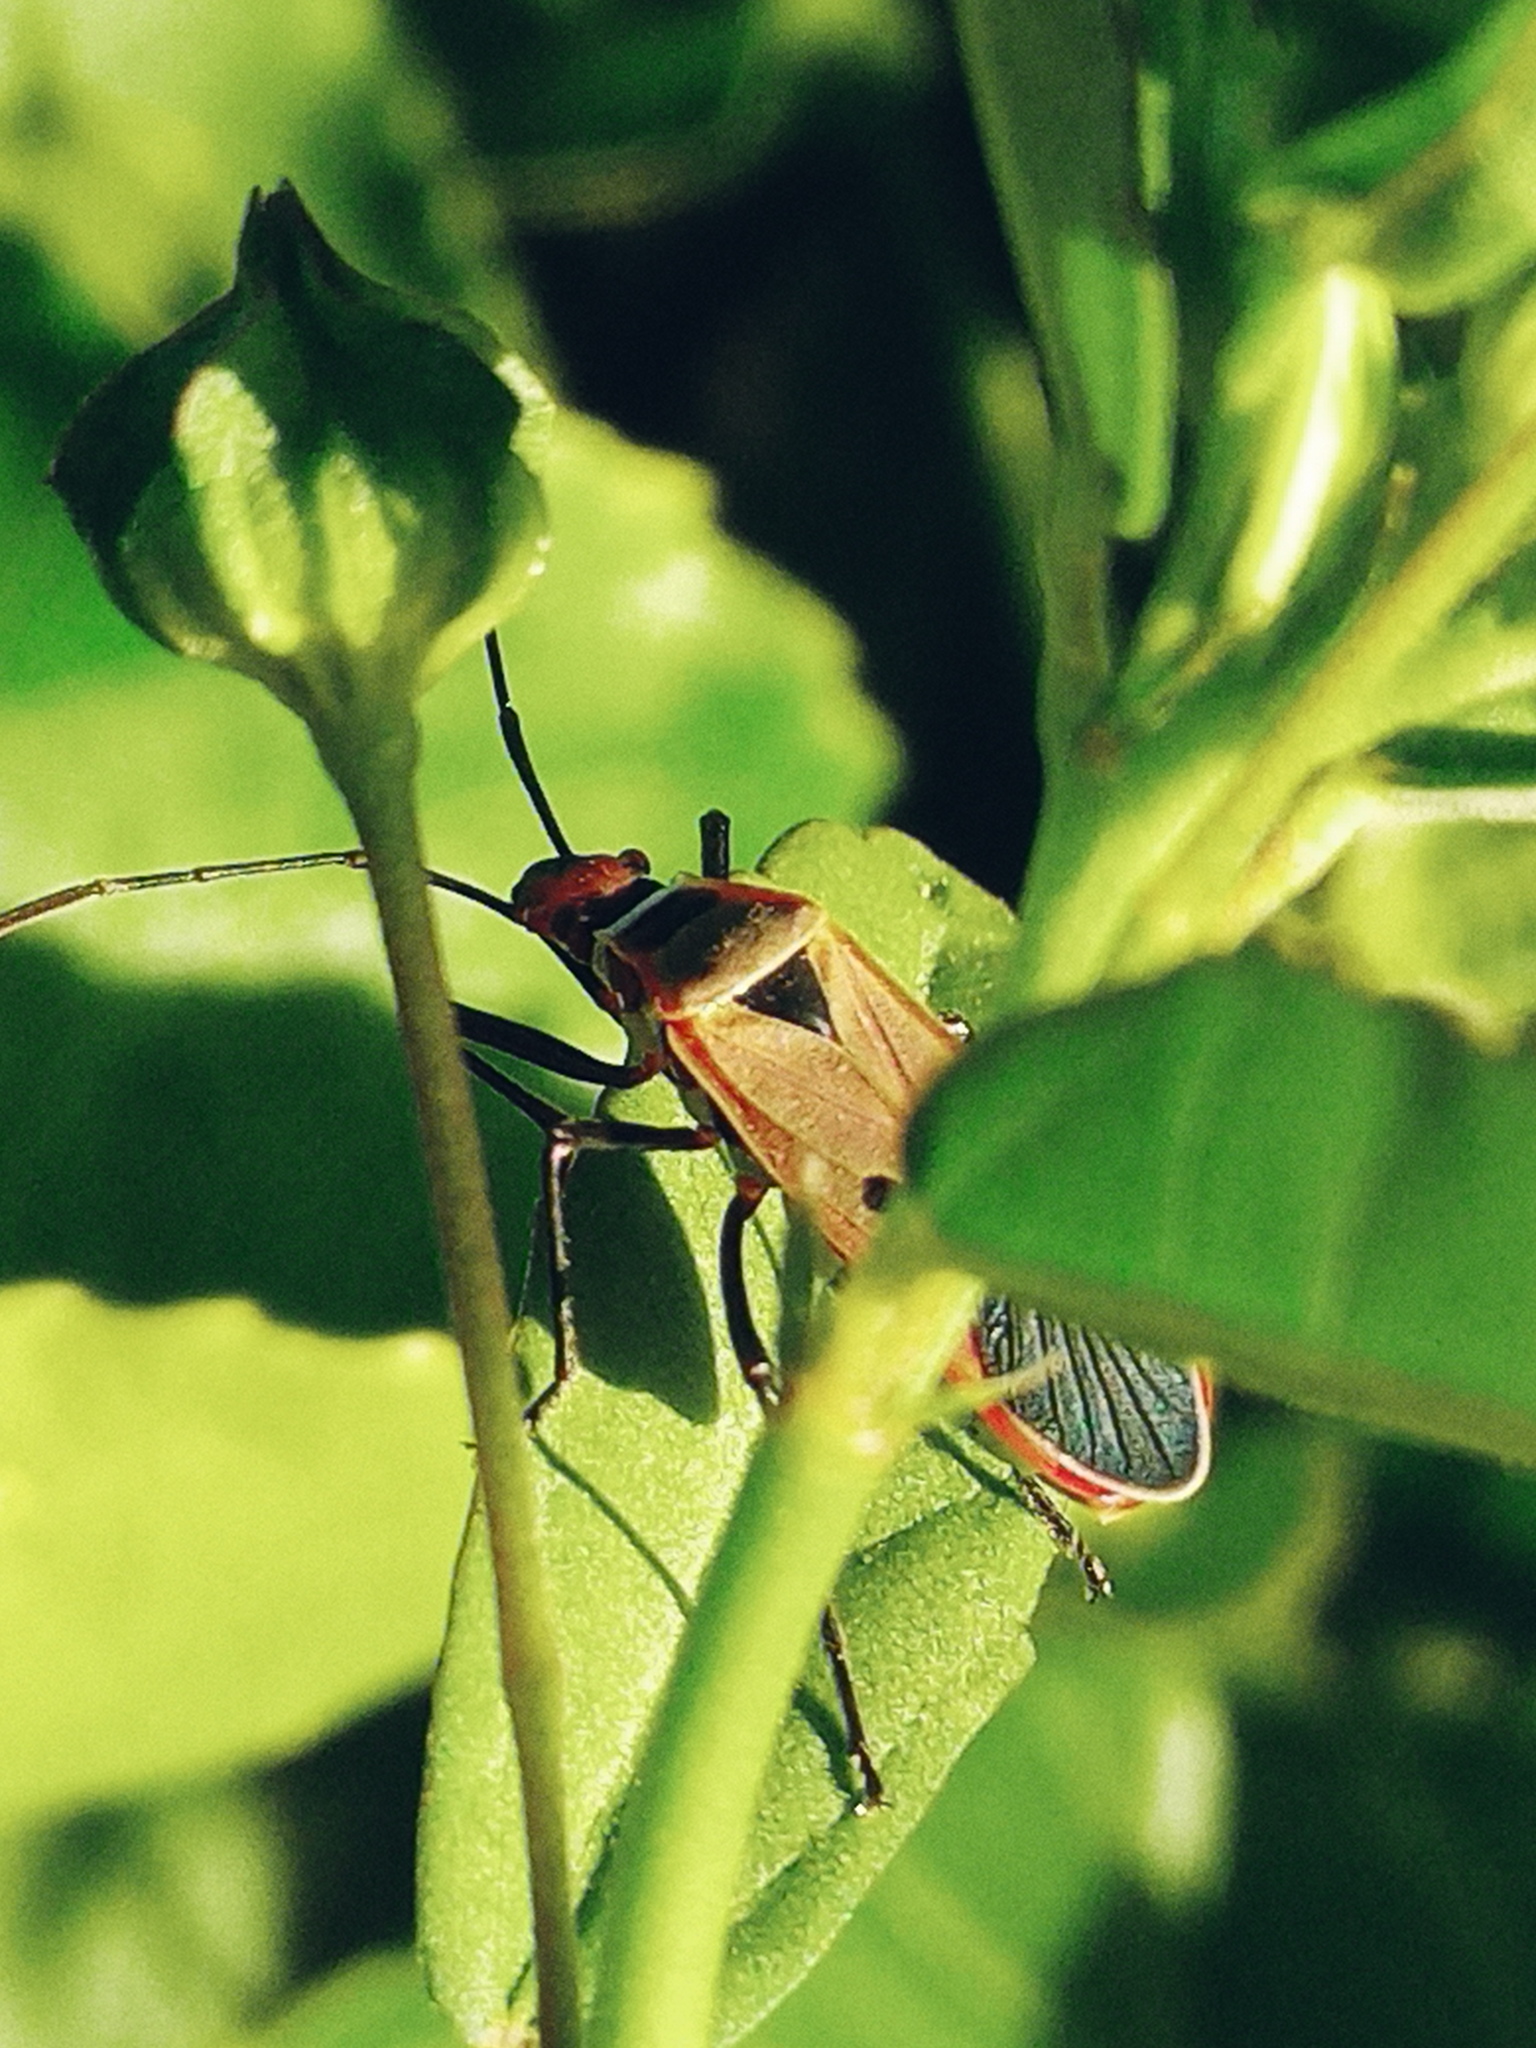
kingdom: Animalia
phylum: Arthropoda
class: Insecta
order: Hemiptera
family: Pyrrhocoridae
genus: Dysdercus
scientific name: Dysdercus sidae
